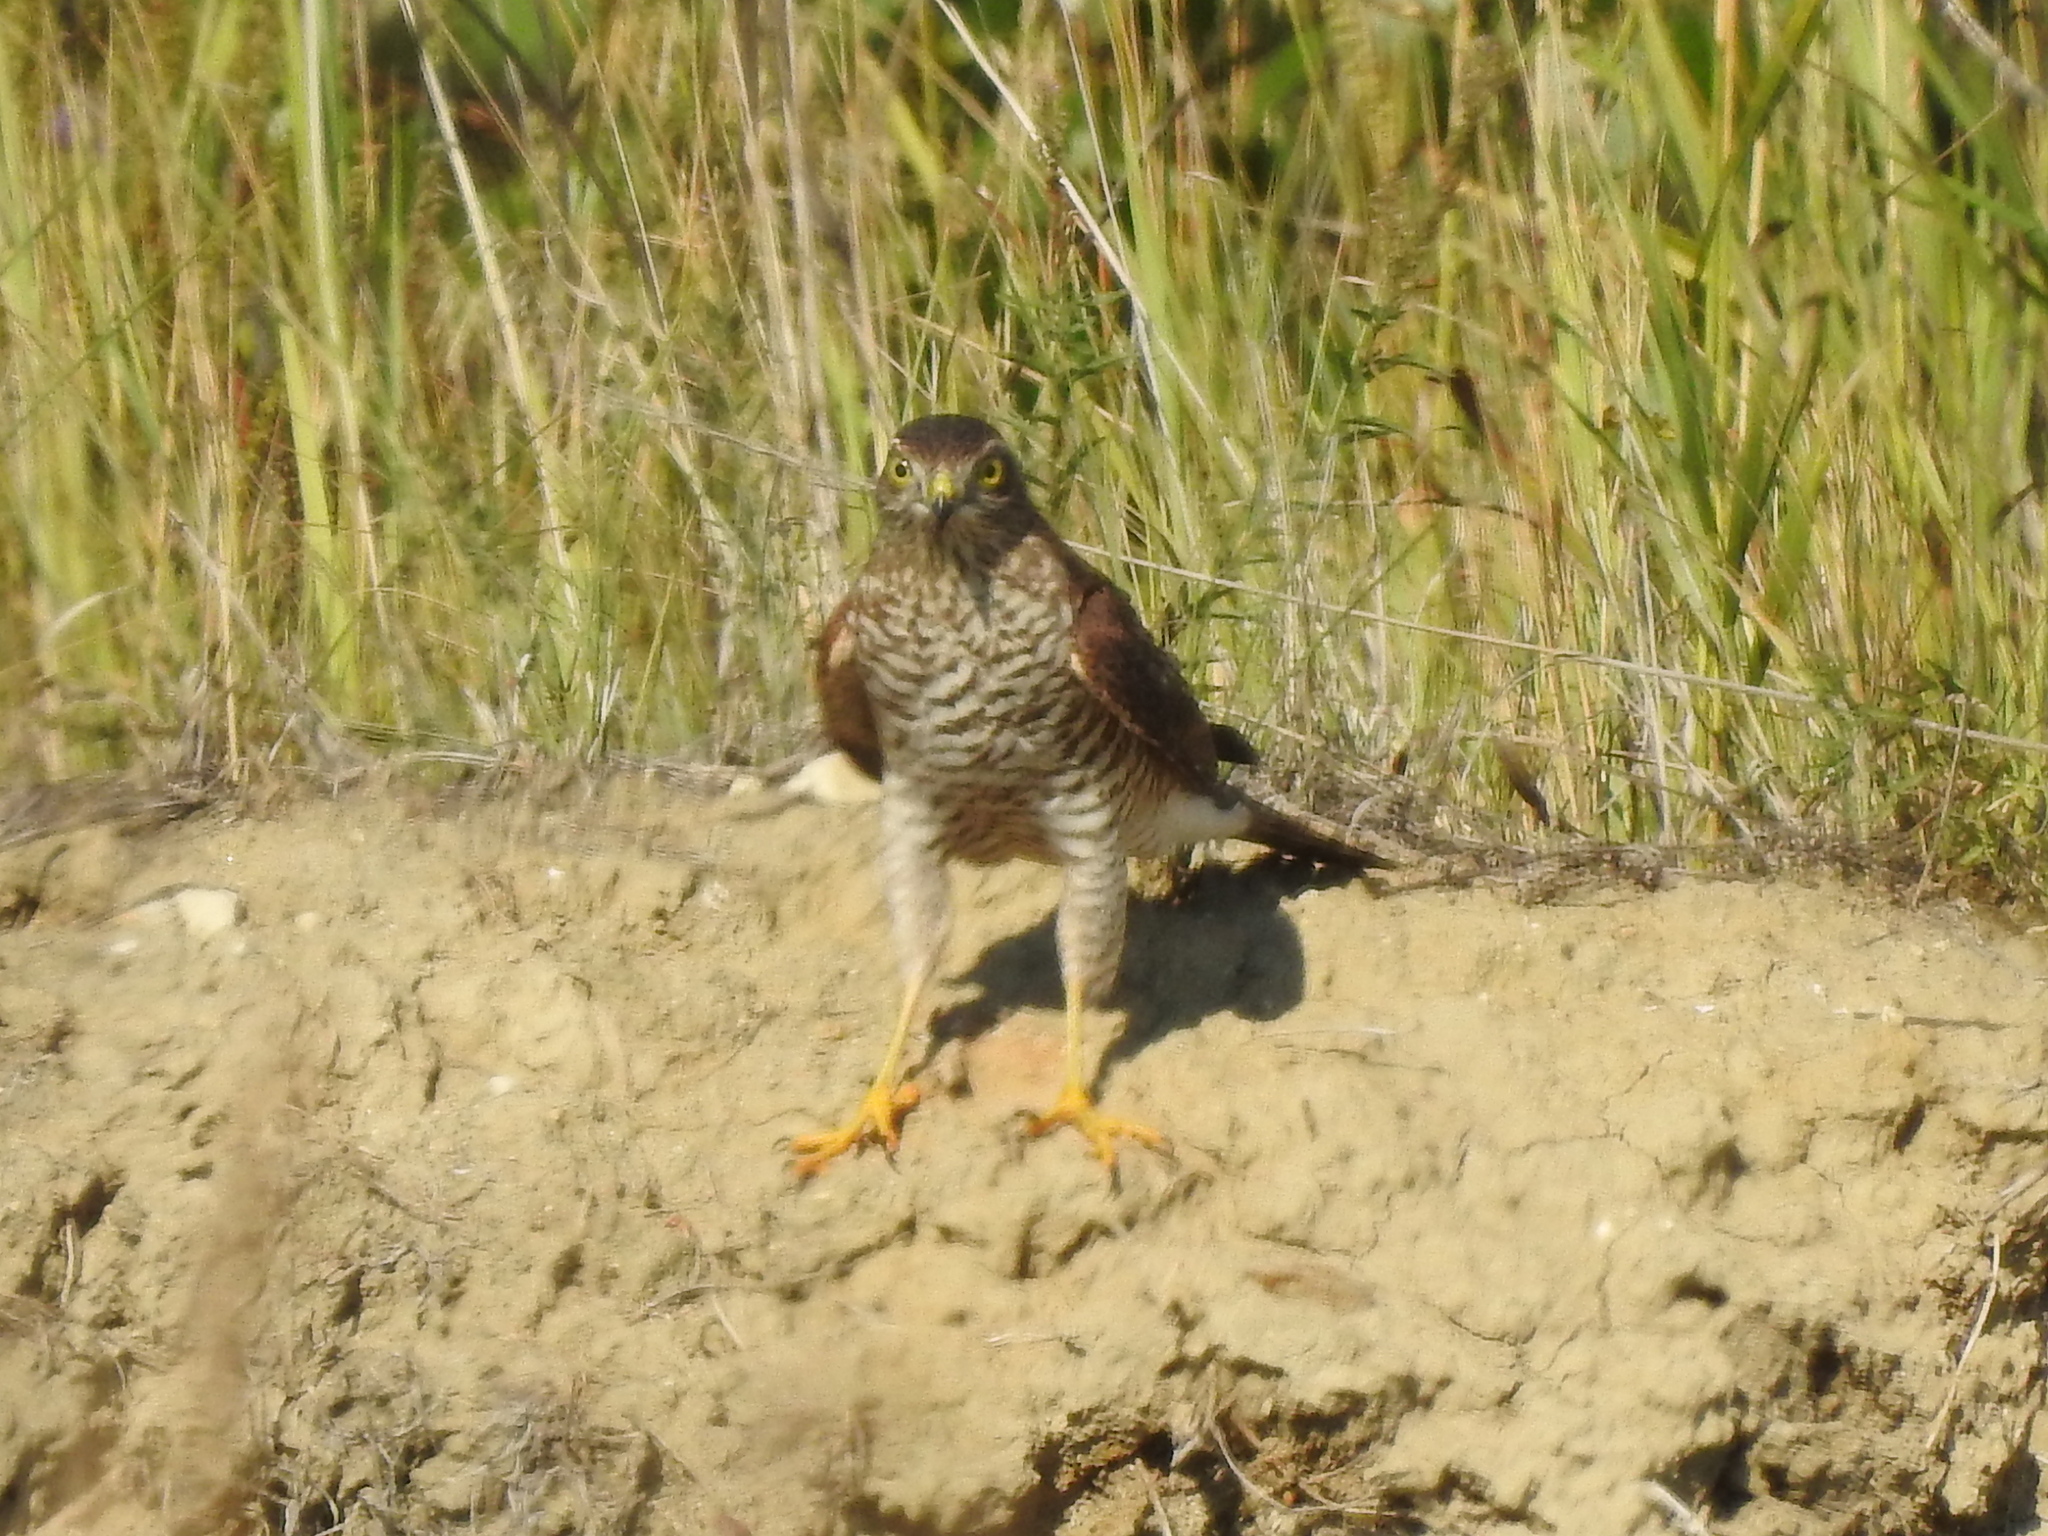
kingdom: Animalia
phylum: Chordata
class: Aves
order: Accipitriformes
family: Accipitridae
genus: Accipiter
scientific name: Accipiter nisus
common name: Eurasian sparrowhawk
